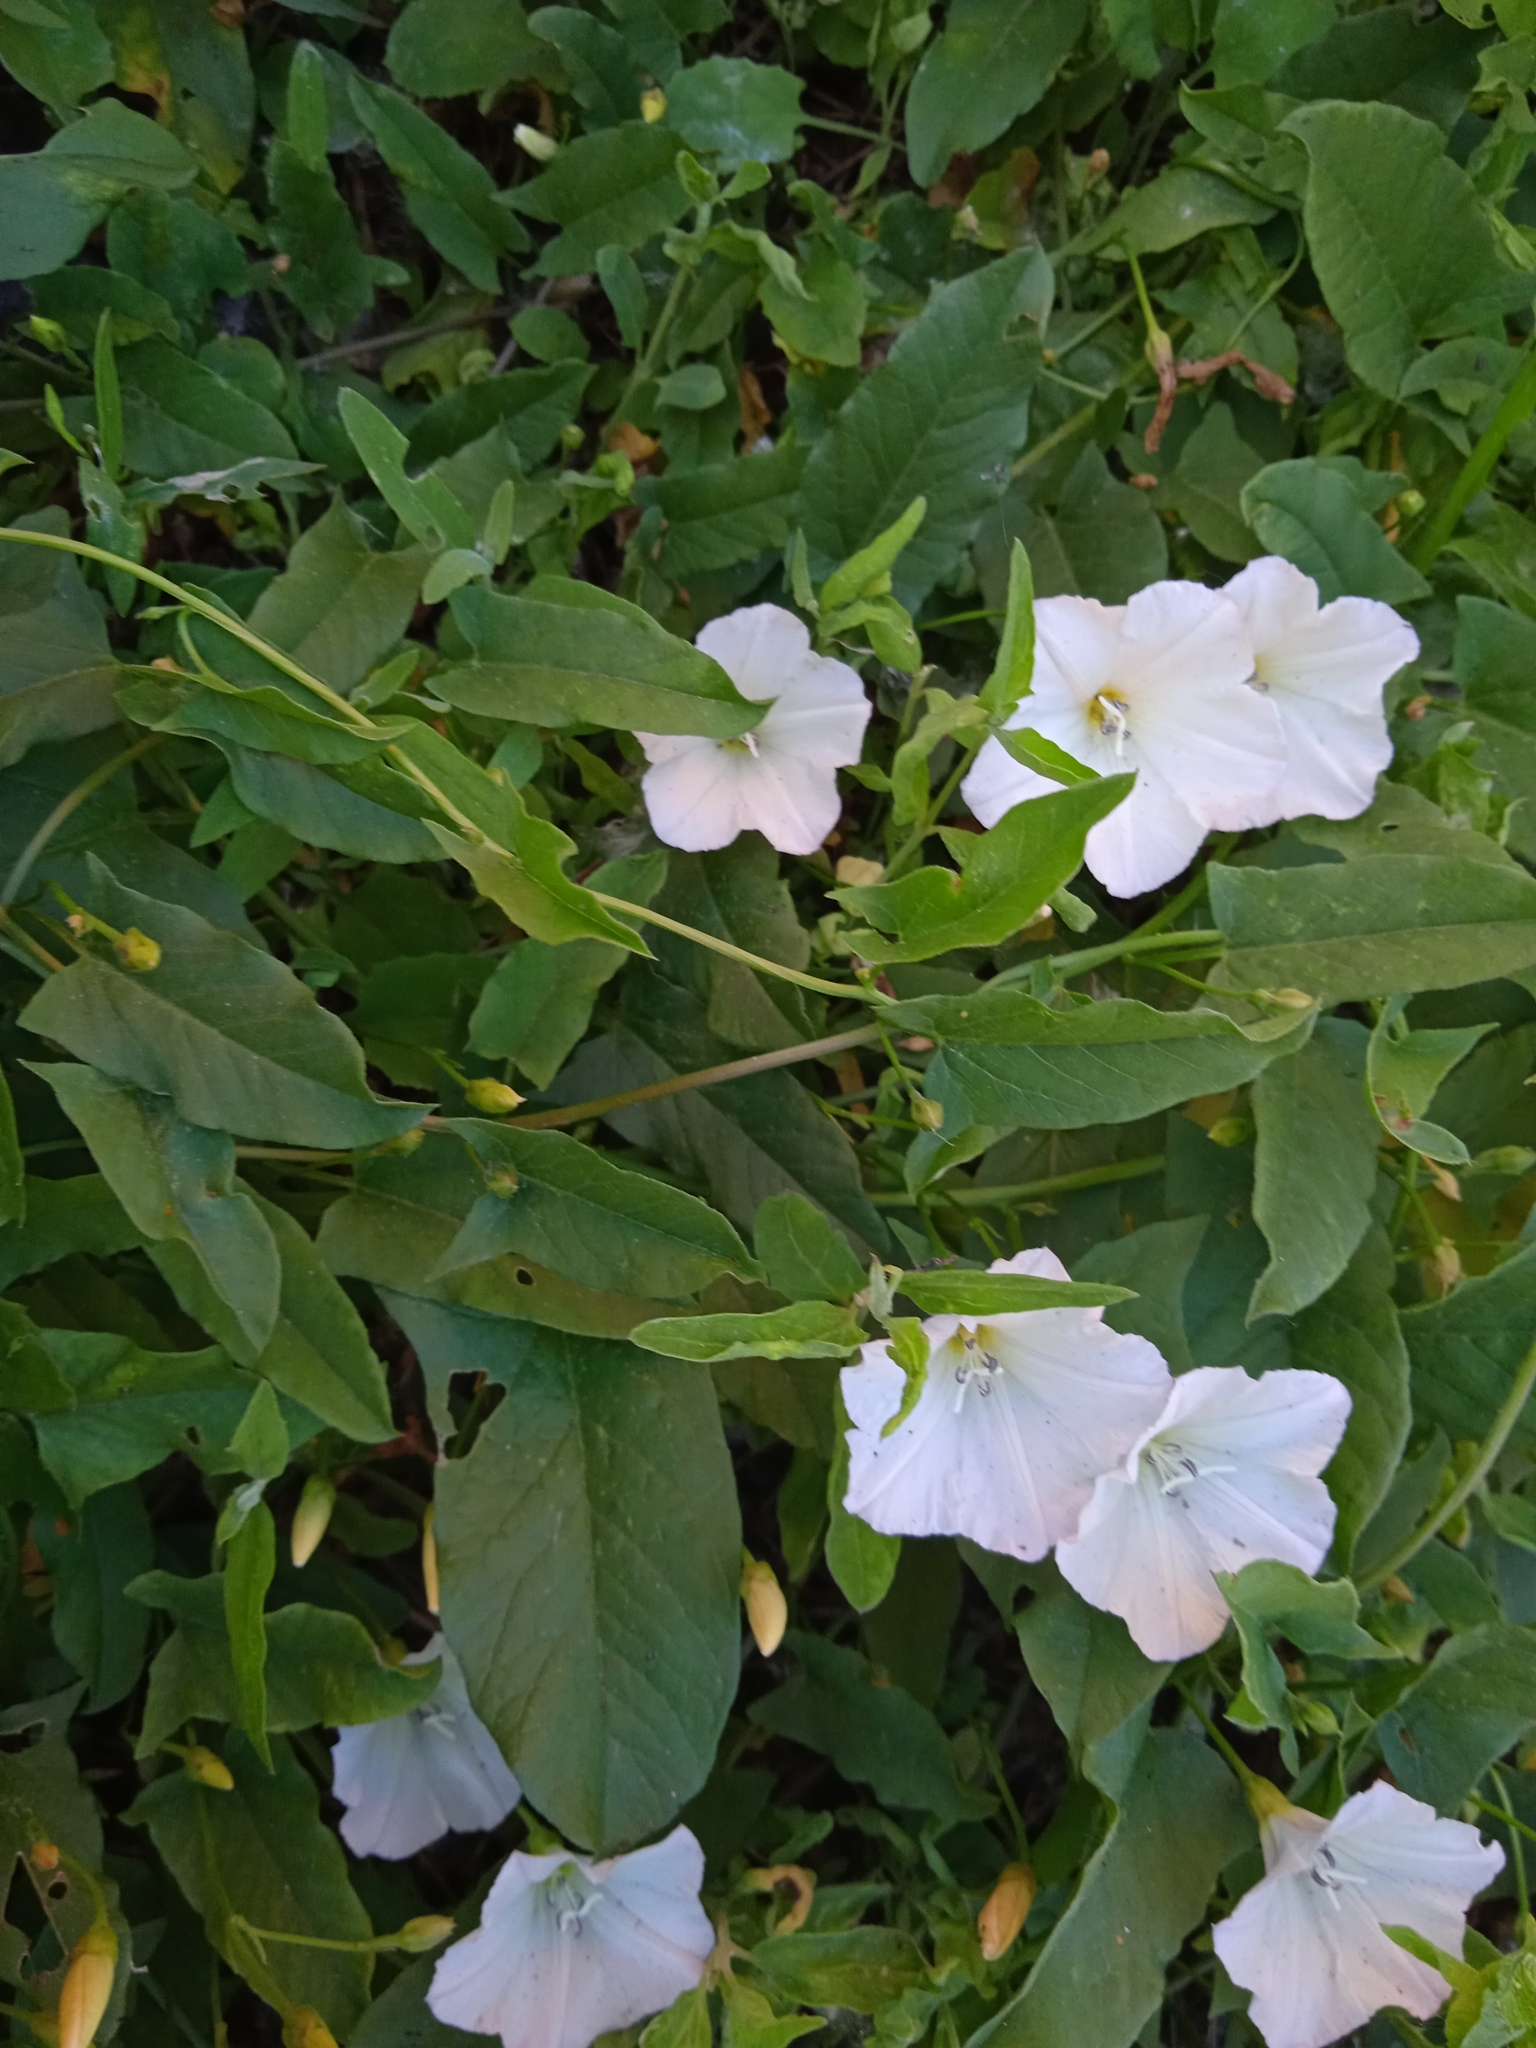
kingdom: Plantae
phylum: Tracheophyta
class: Magnoliopsida
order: Solanales
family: Convolvulaceae
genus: Convolvulus
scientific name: Convolvulus arvensis
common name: Field bindweed
